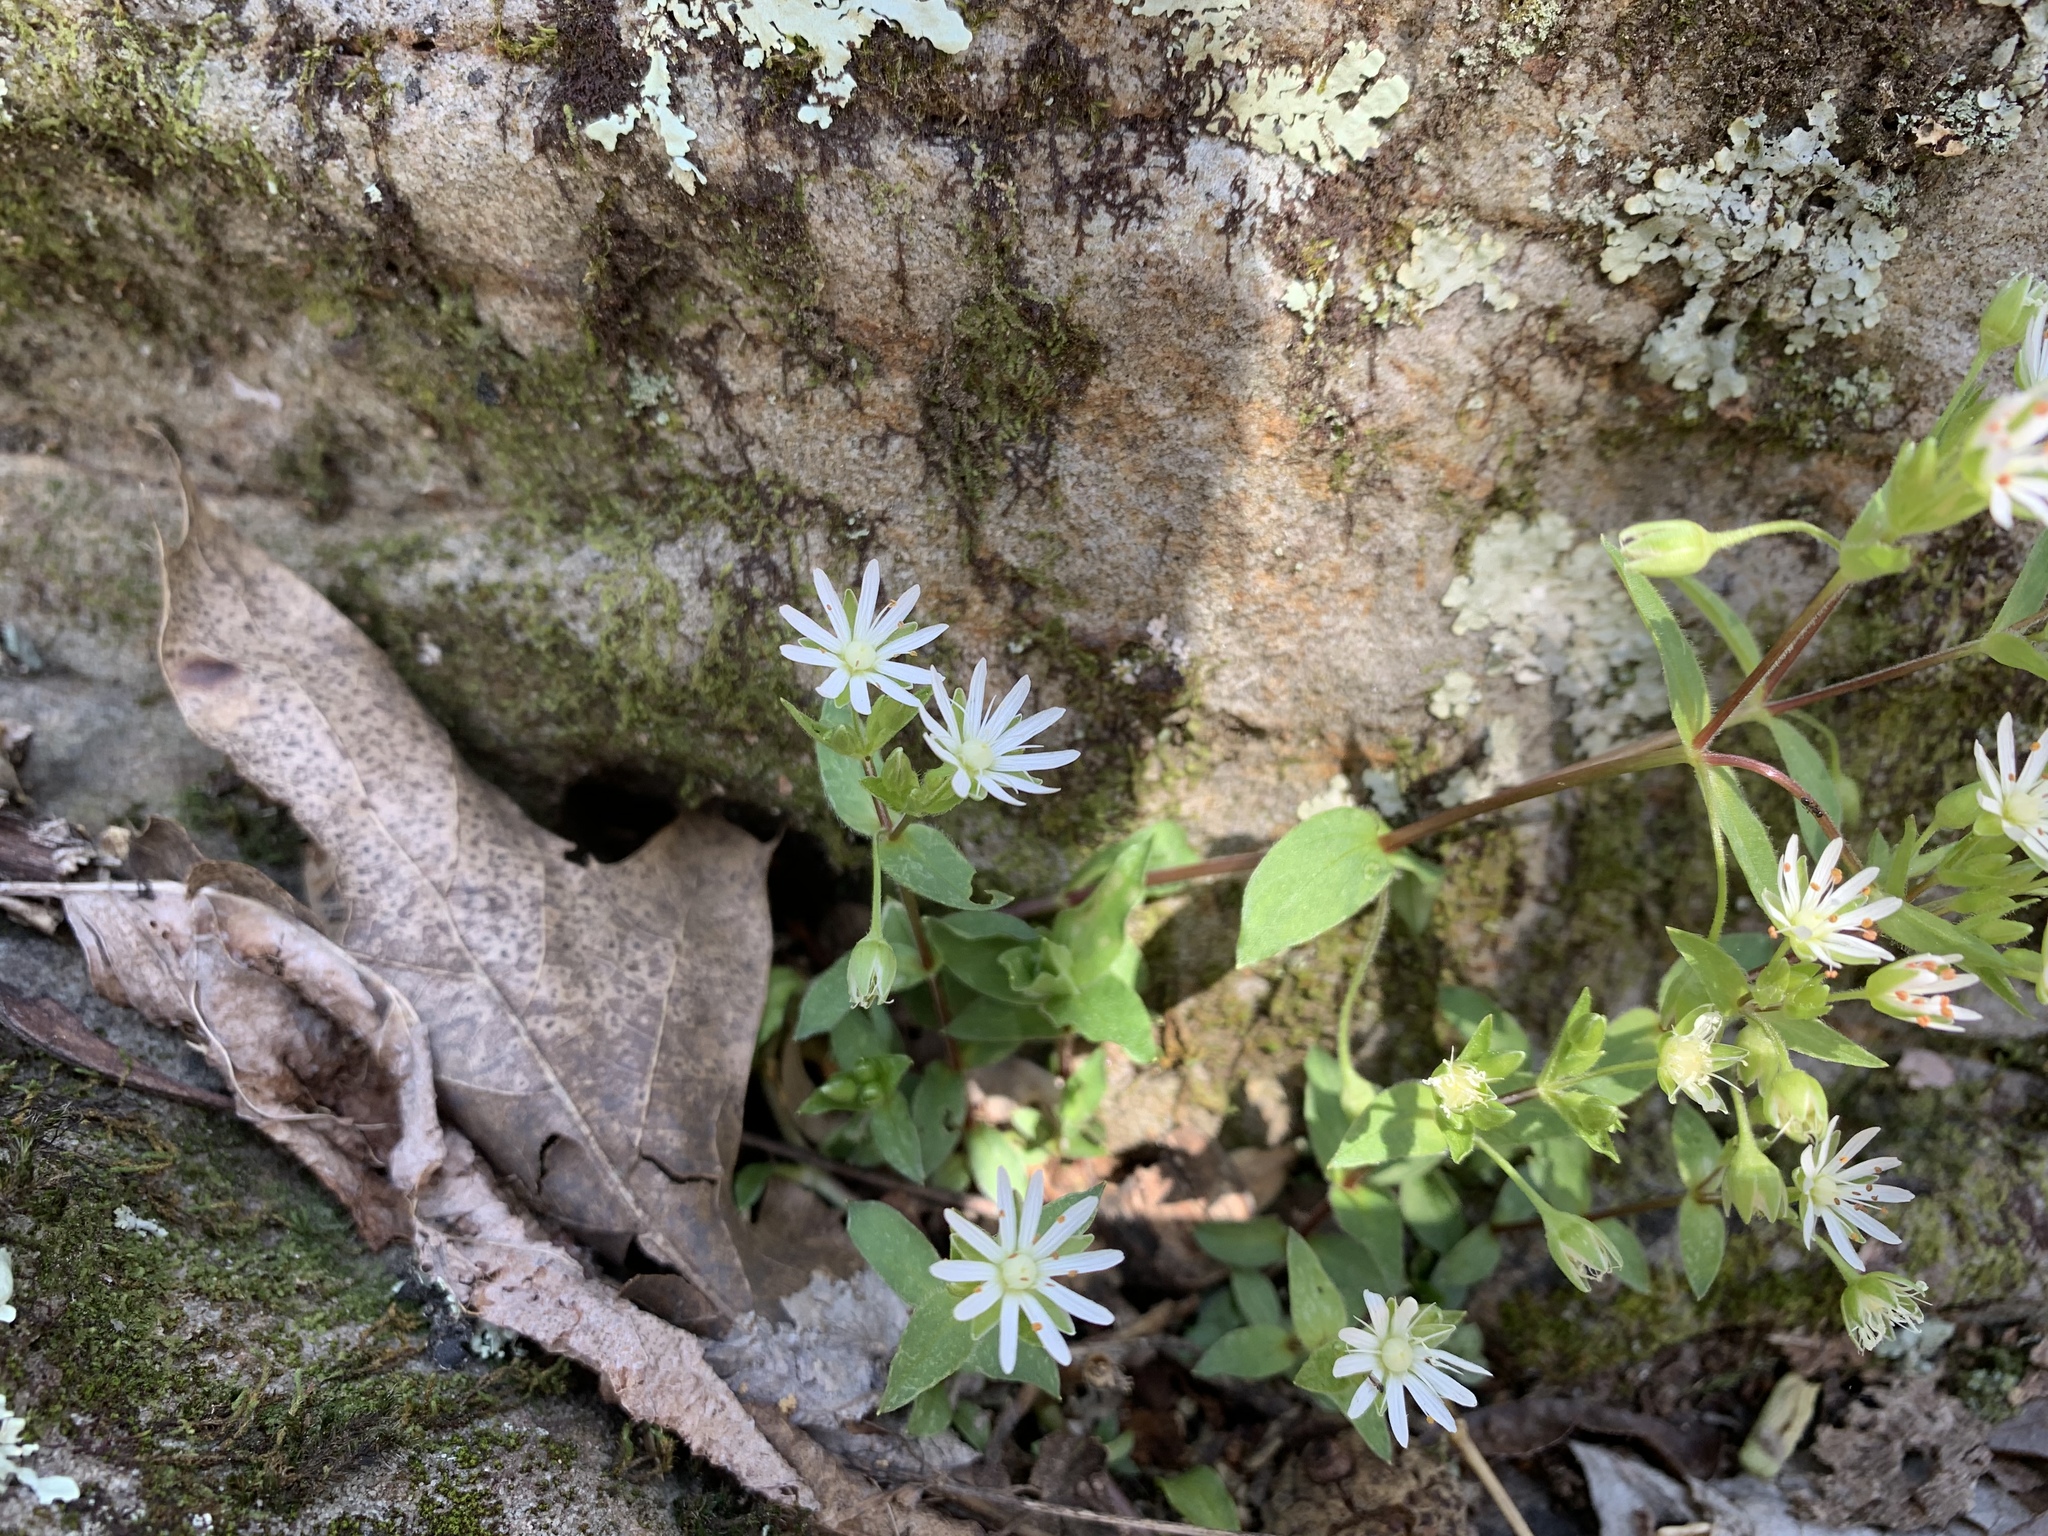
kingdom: Plantae
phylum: Tracheophyta
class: Magnoliopsida
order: Caryophyllales
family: Caryophyllaceae
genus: Stellaria
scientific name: Stellaria pubera
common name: Star chickweed
